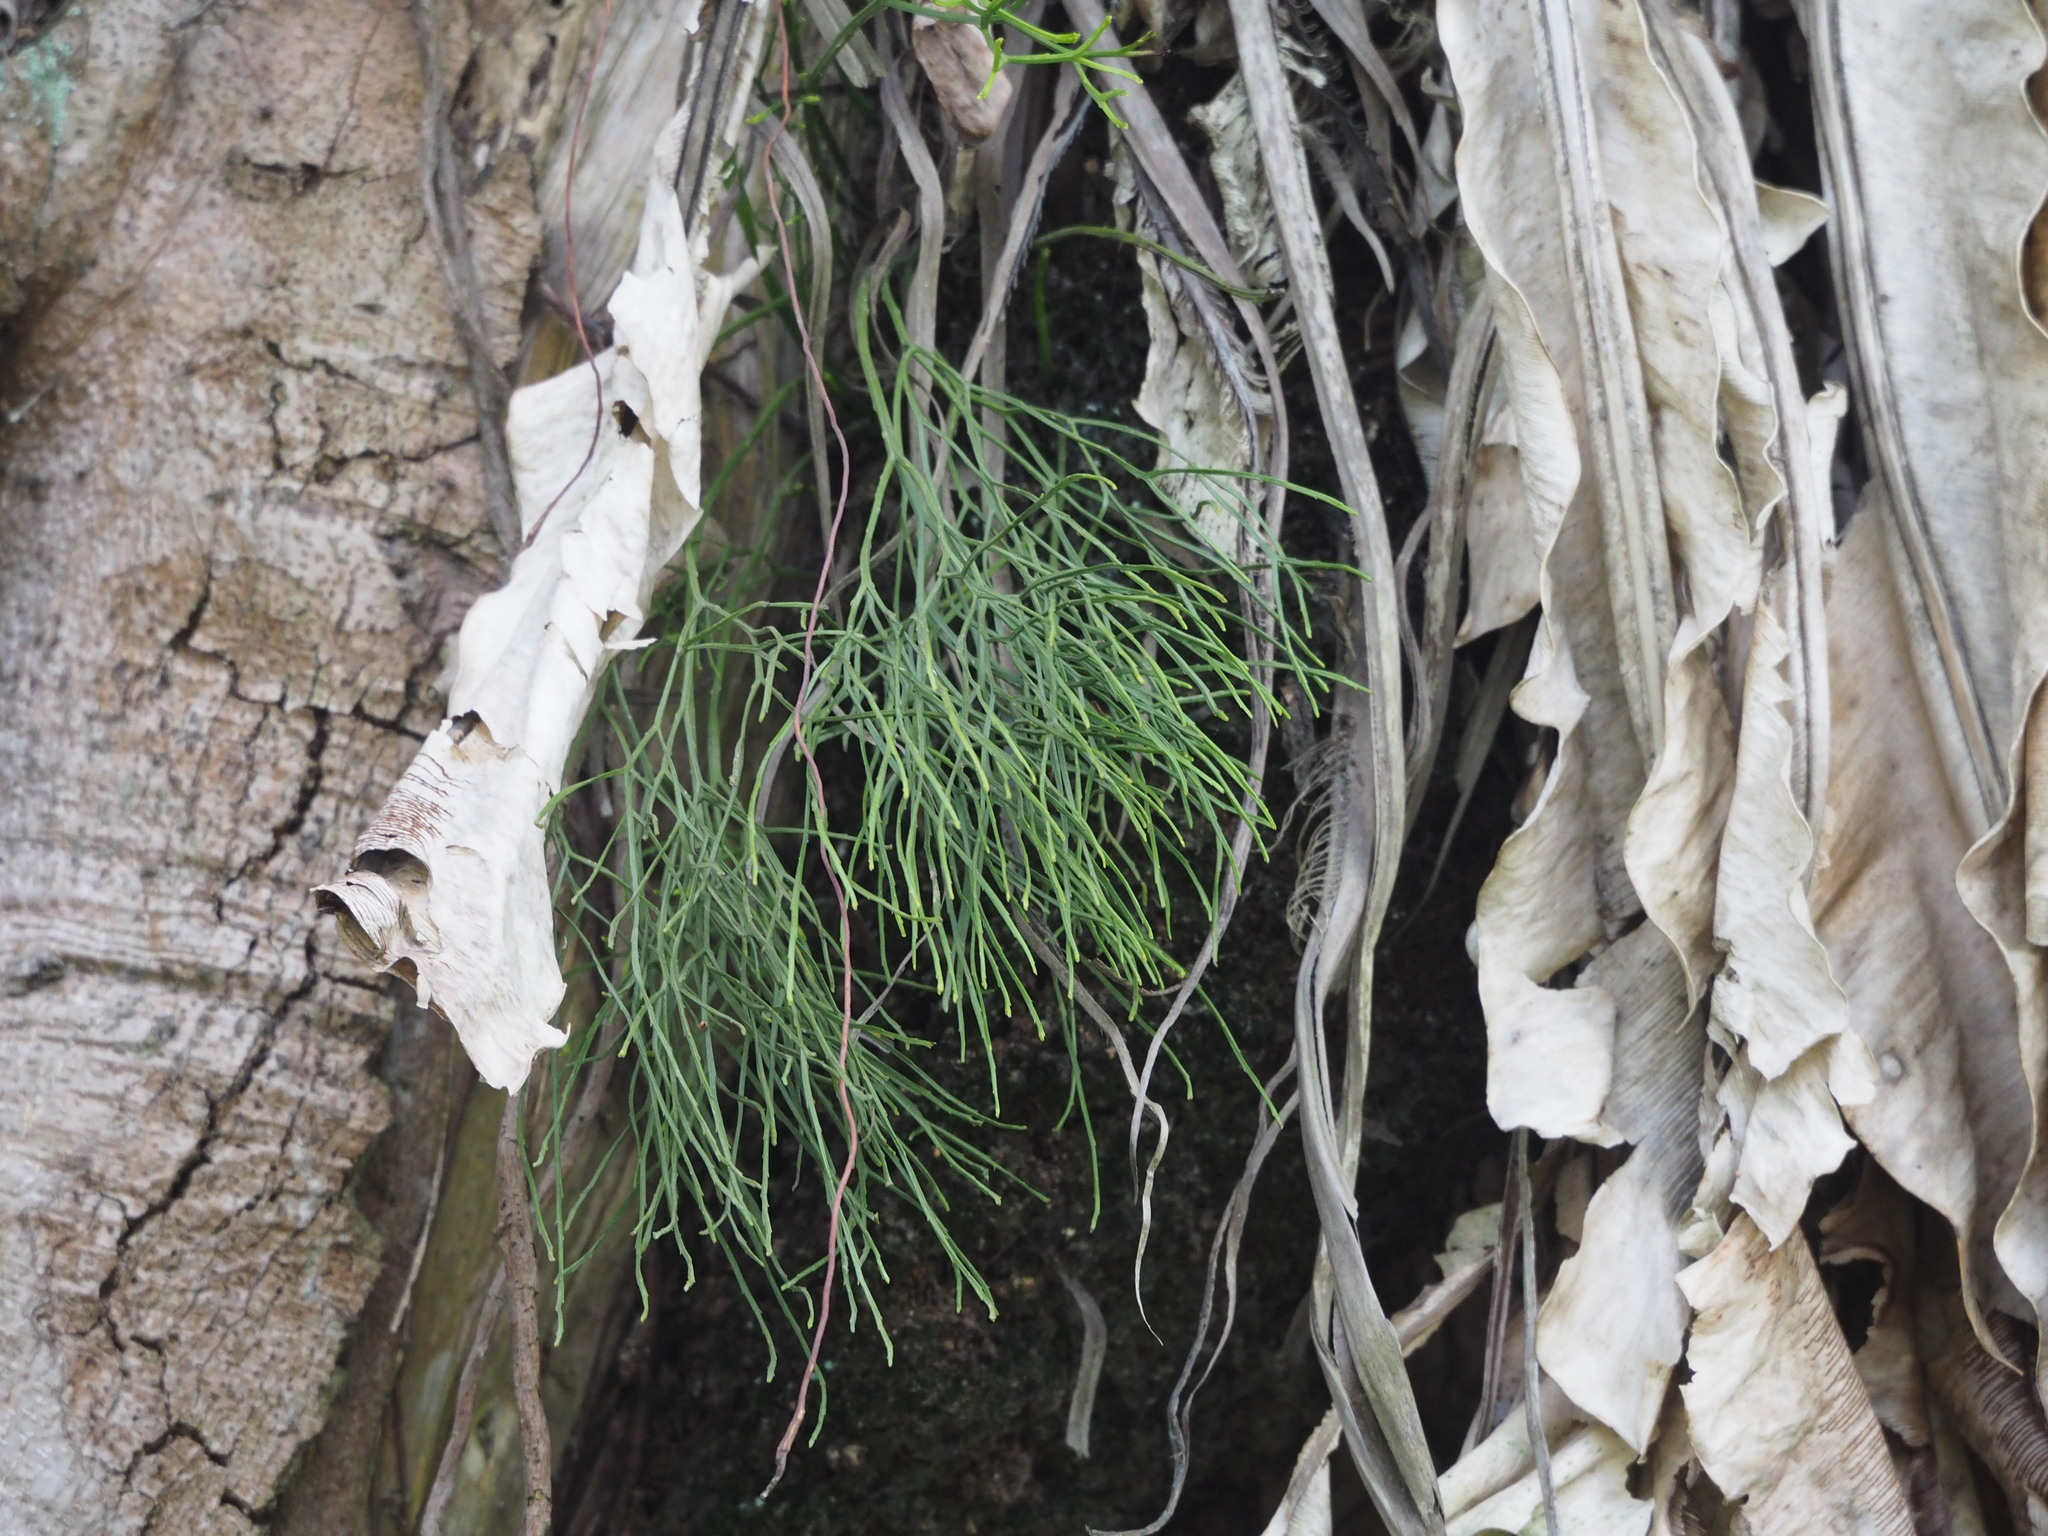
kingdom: Plantae
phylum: Tracheophyta
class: Polypodiopsida
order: Psilotales
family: Psilotaceae
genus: Psilotum
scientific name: Psilotum nudum
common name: Skeleton fork fern
